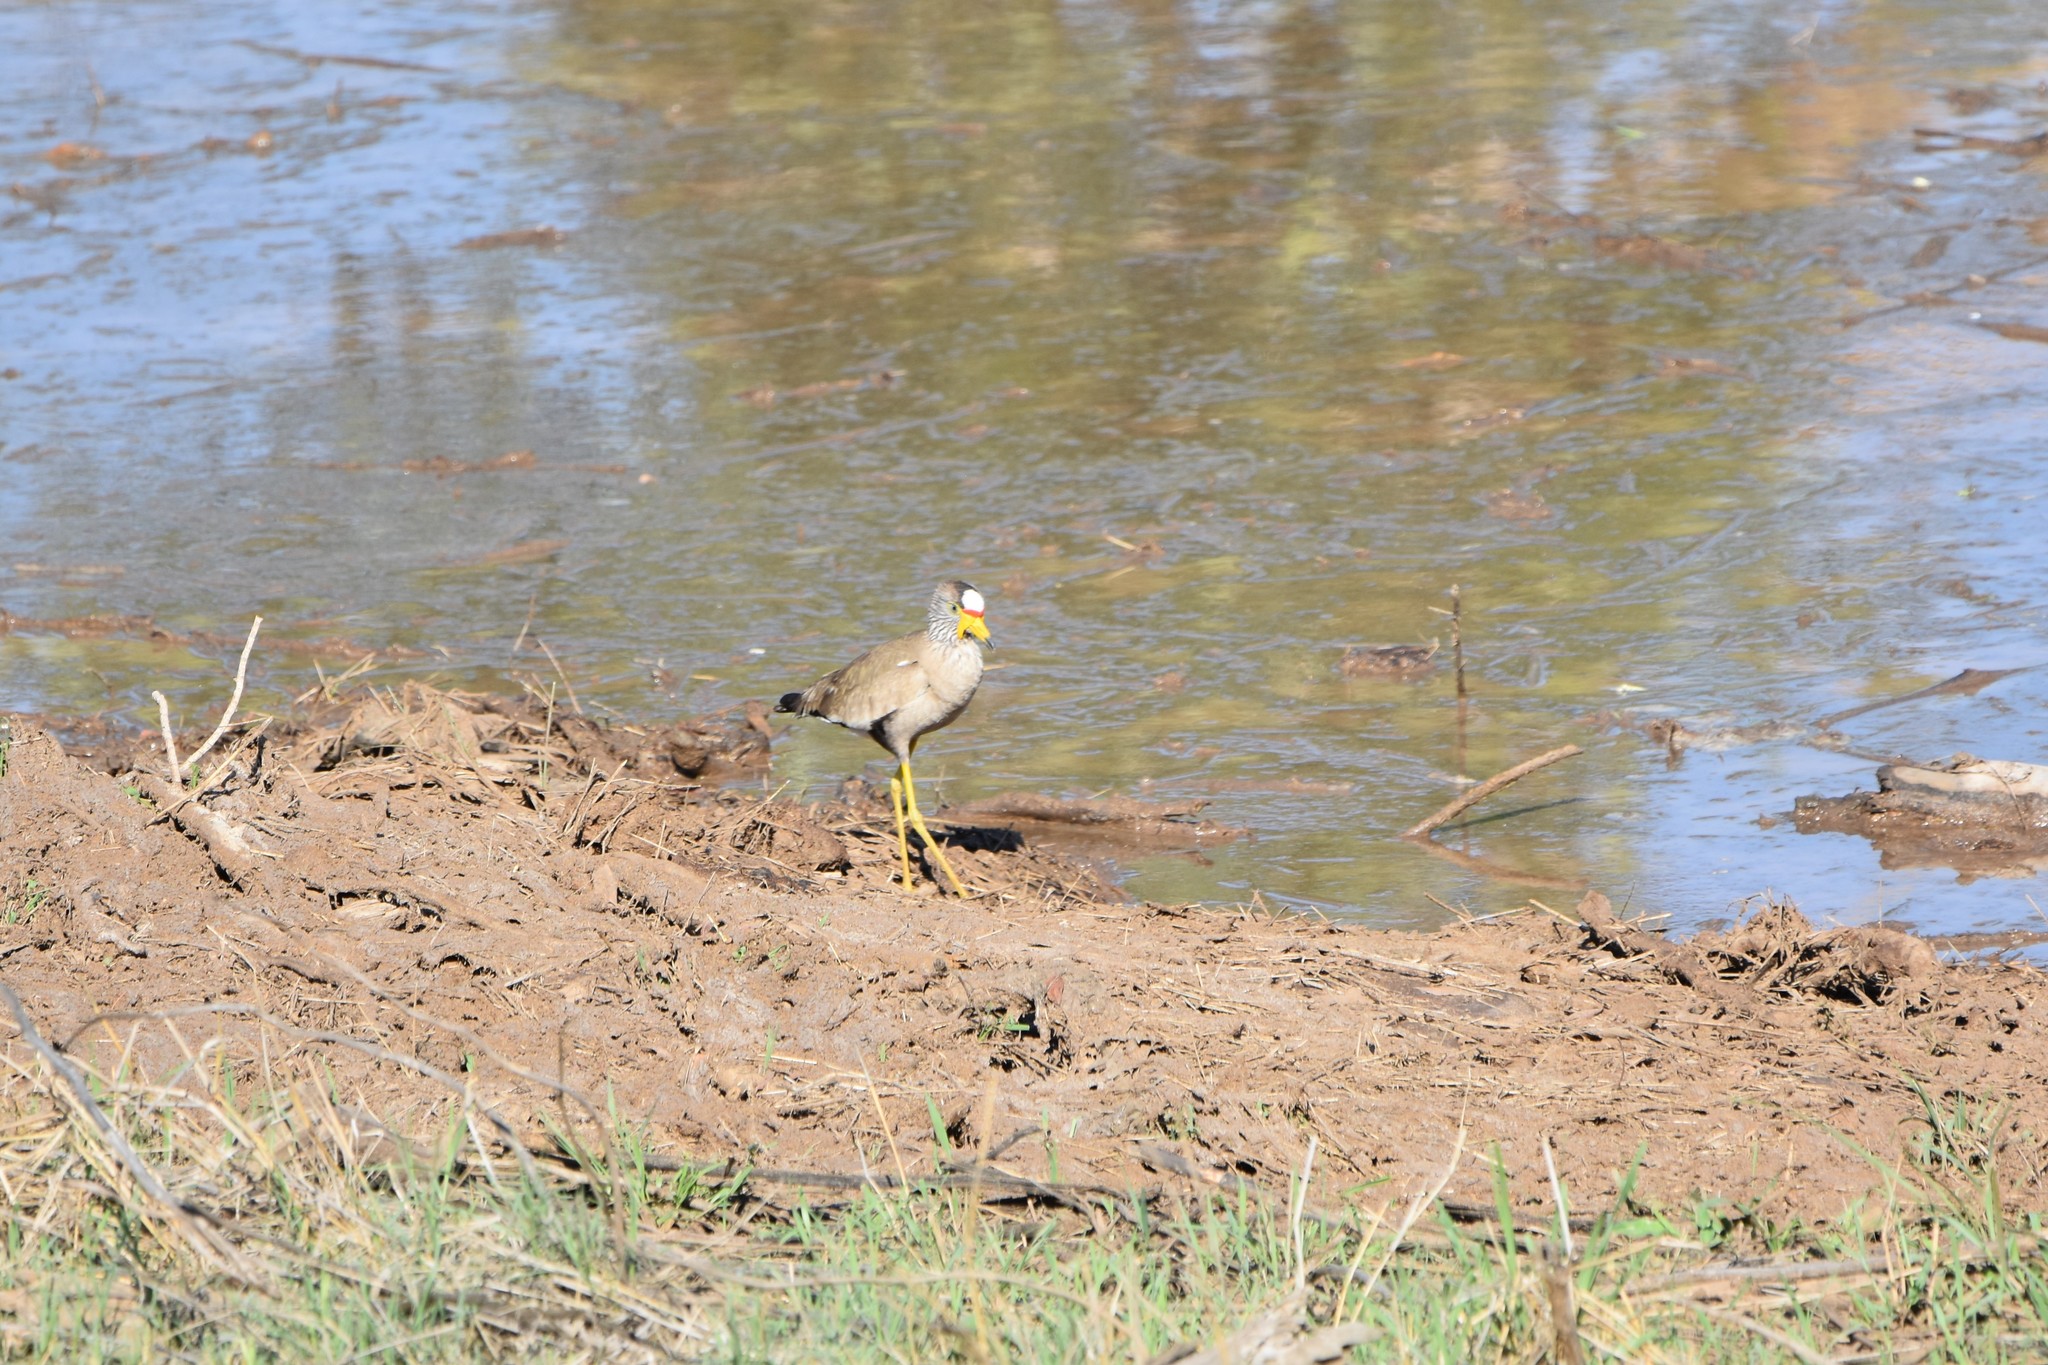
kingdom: Animalia
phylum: Chordata
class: Aves
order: Charadriiformes
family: Charadriidae
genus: Vanellus
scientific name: Vanellus senegallus
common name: African wattled lapwing
